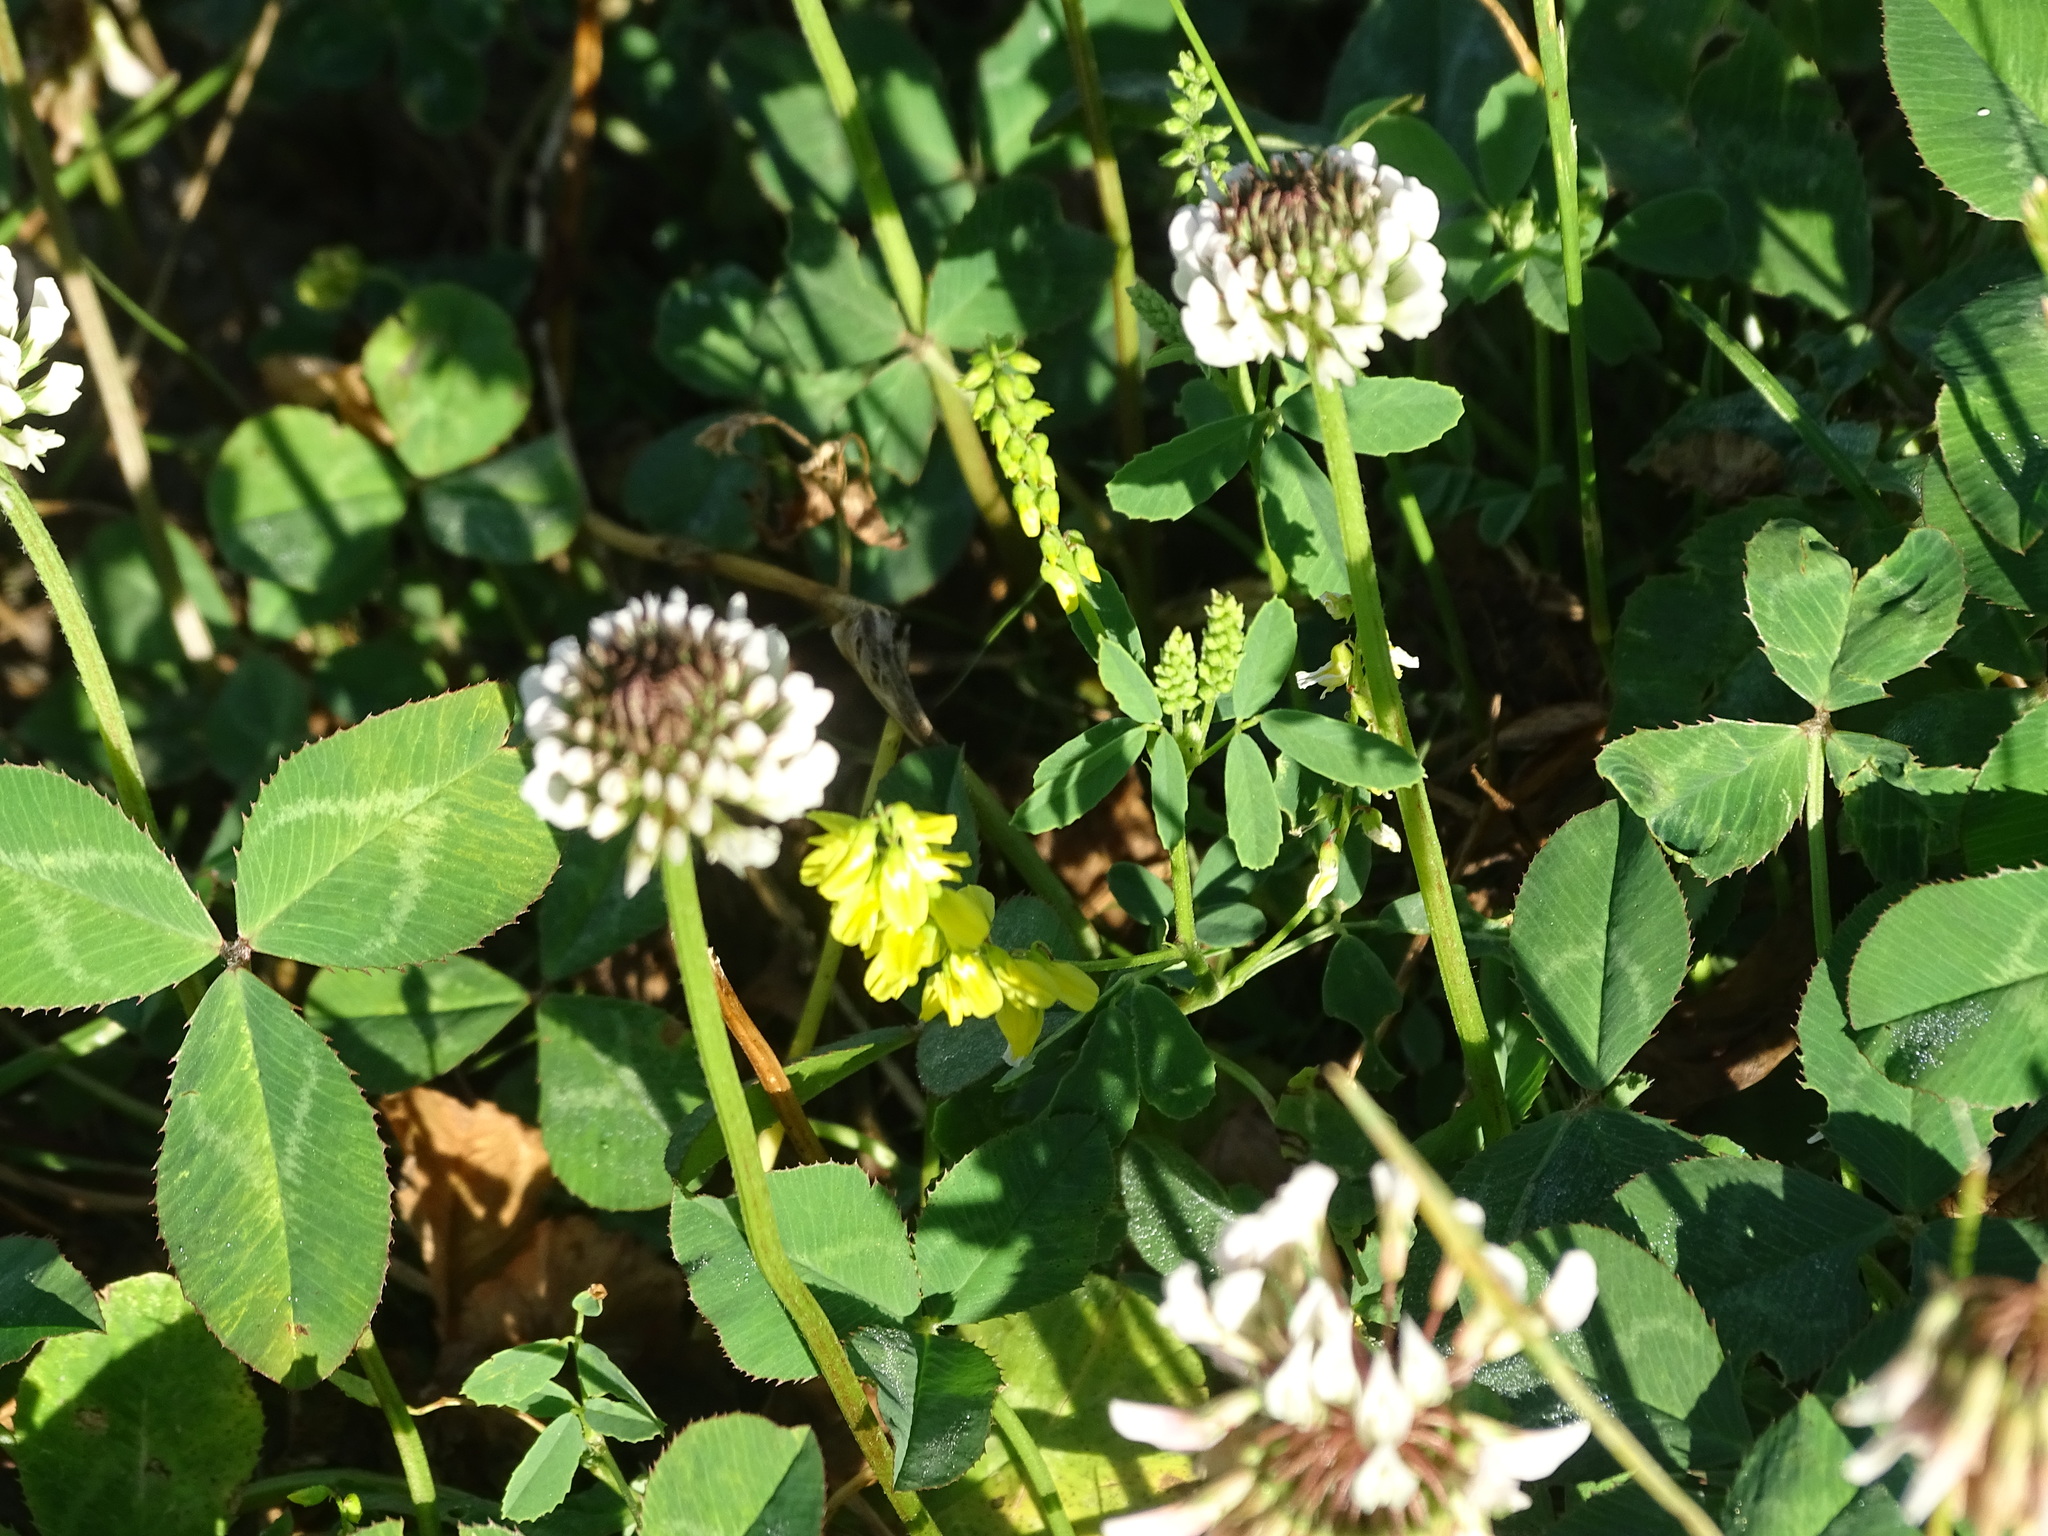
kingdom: Plantae
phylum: Tracheophyta
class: Magnoliopsida
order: Fabales
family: Fabaceae
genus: Melilotus
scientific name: Melilotus officinalis
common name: Sweetclover
